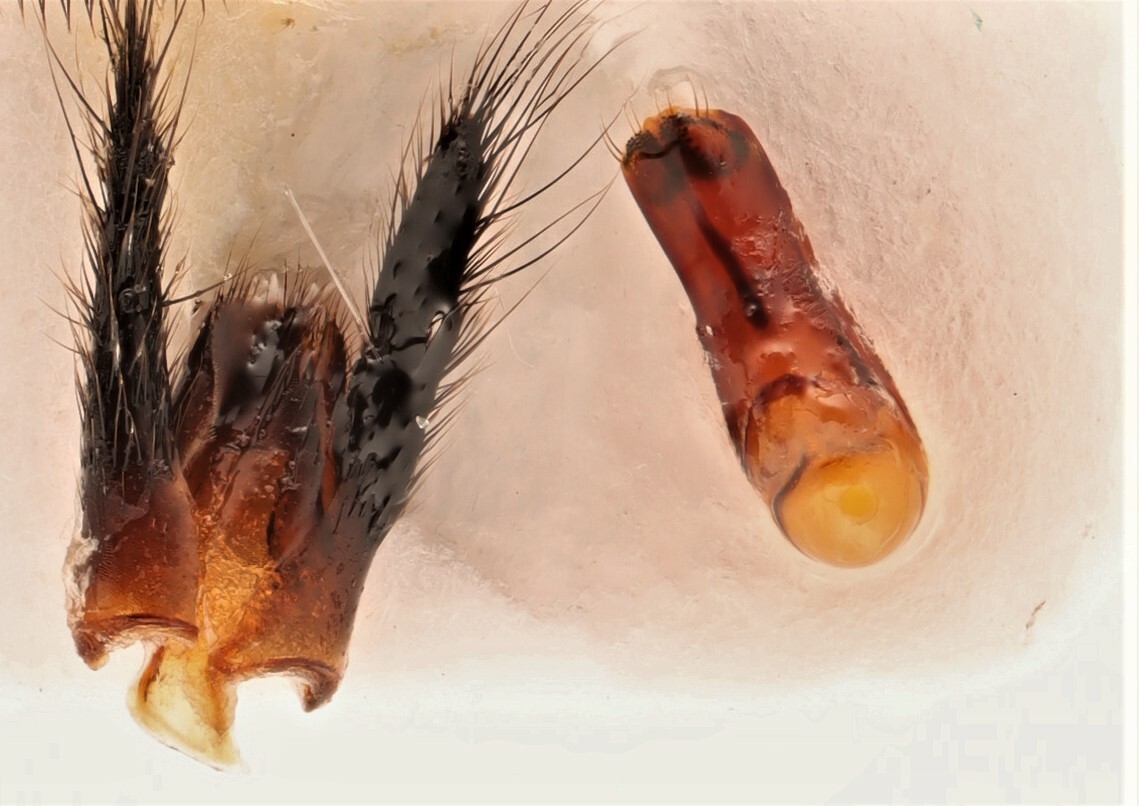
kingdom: Animalia
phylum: Arthropoda
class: Insecta
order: Coleoptera
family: Staphylinidae
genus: Anaquedius
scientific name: Anaquedius vernix
